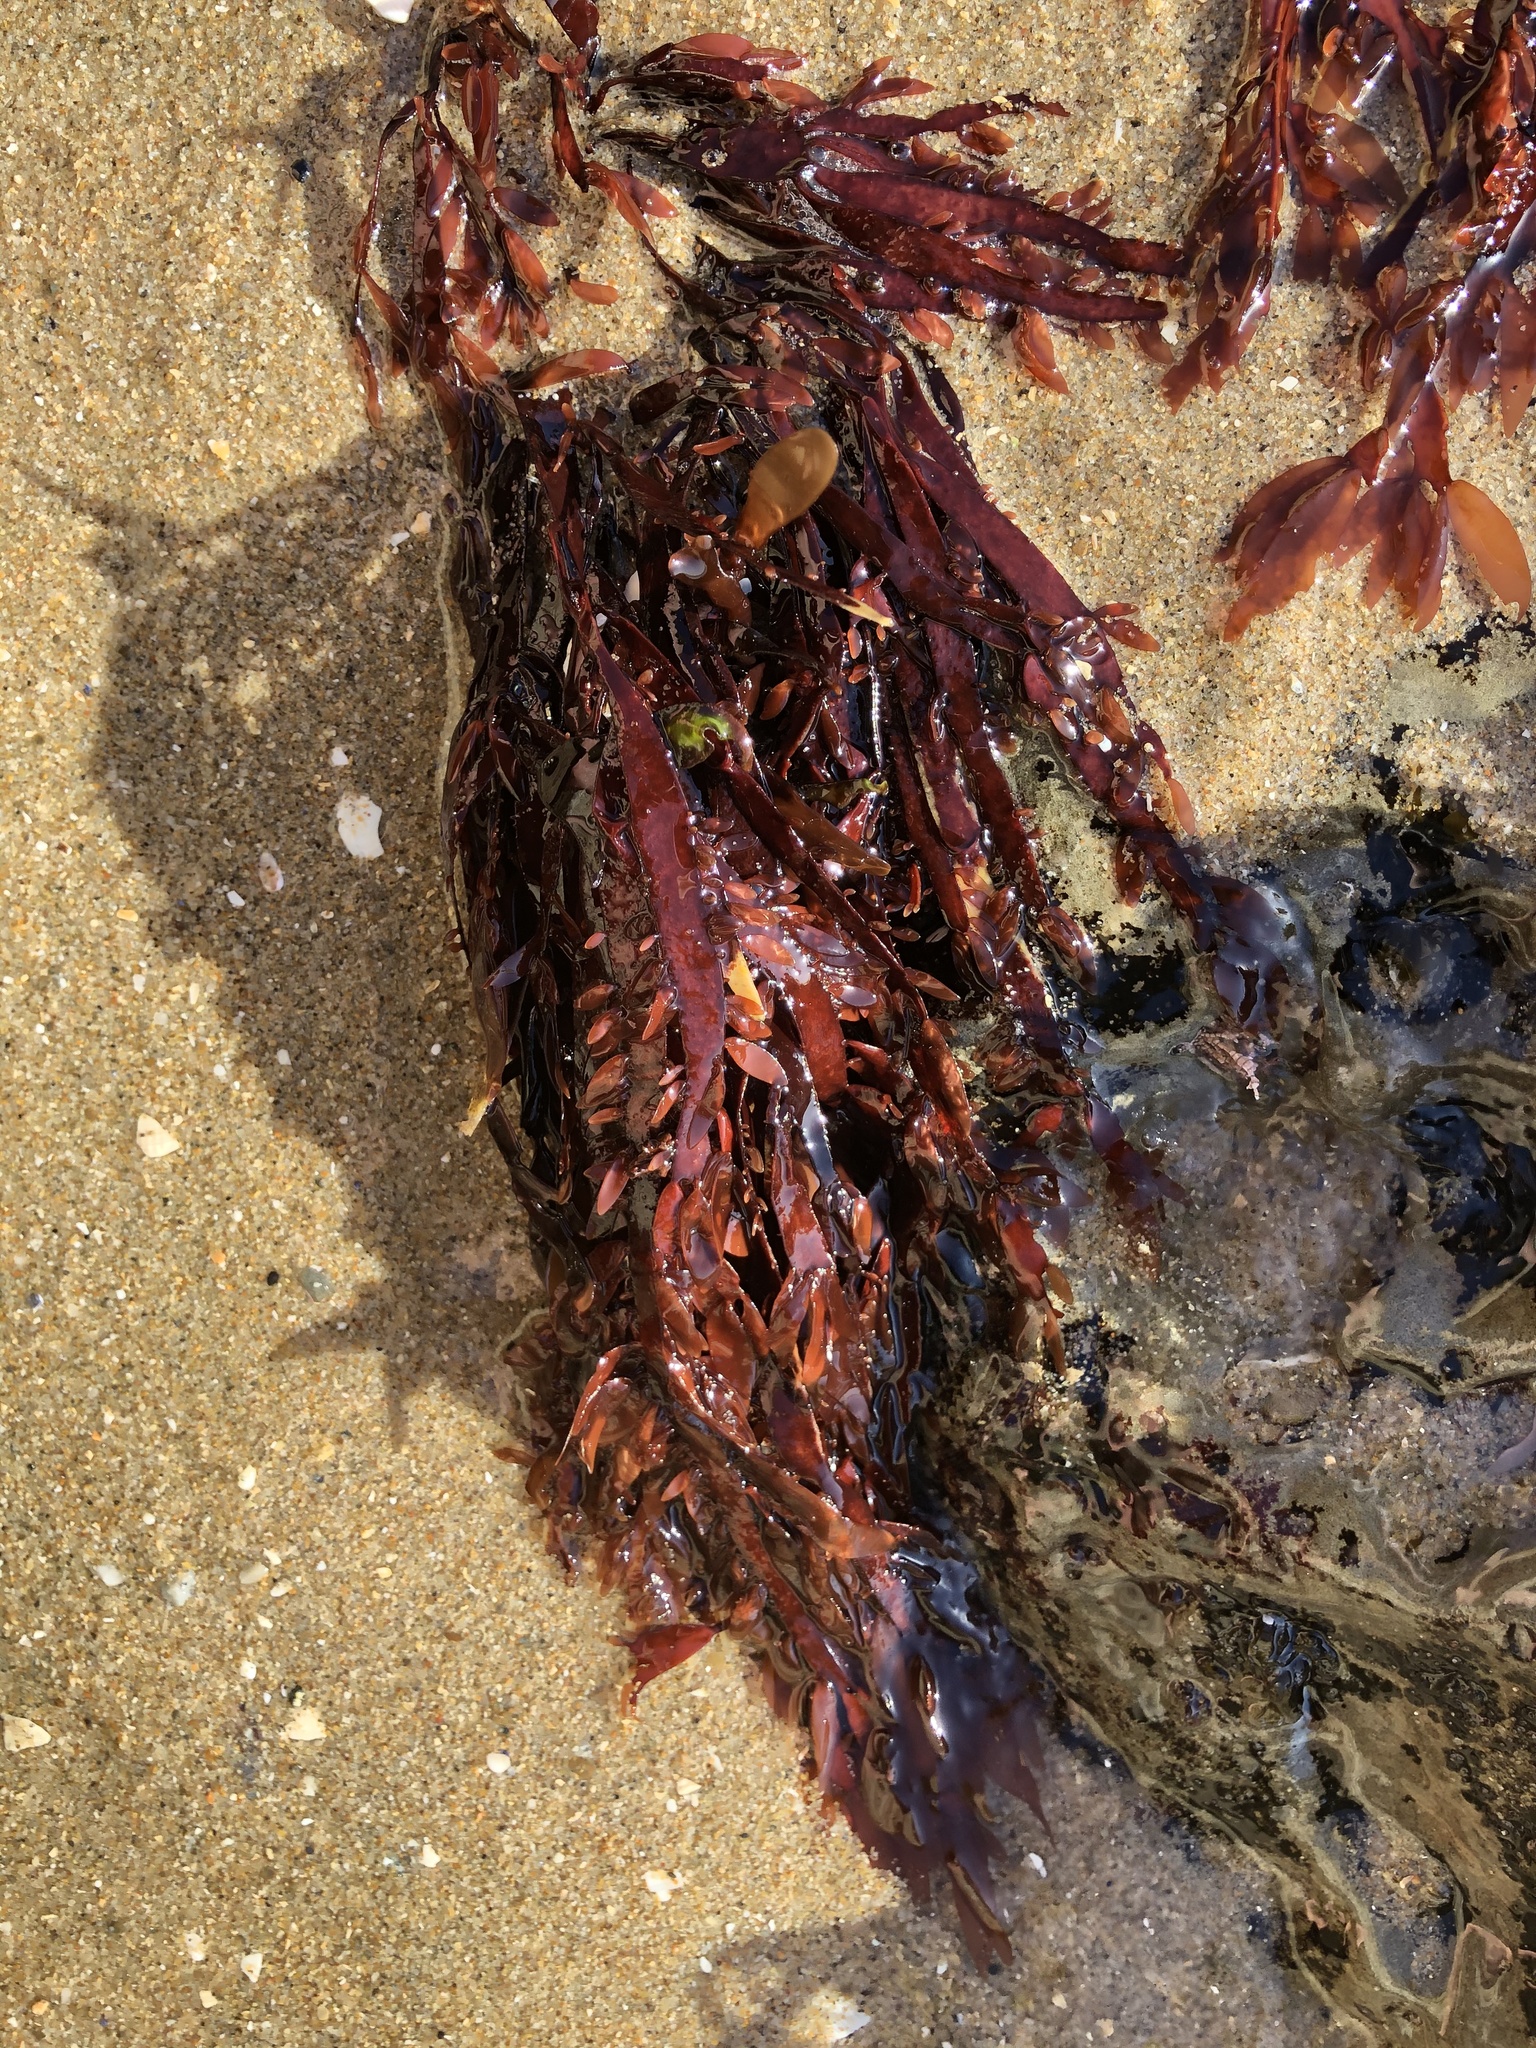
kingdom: Plantae
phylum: Rhodophyta
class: Florideophyceae
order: Halymeniales
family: Halymeniaceae
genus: Grateloupia
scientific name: Grateloupia Prionitis lanceolata
